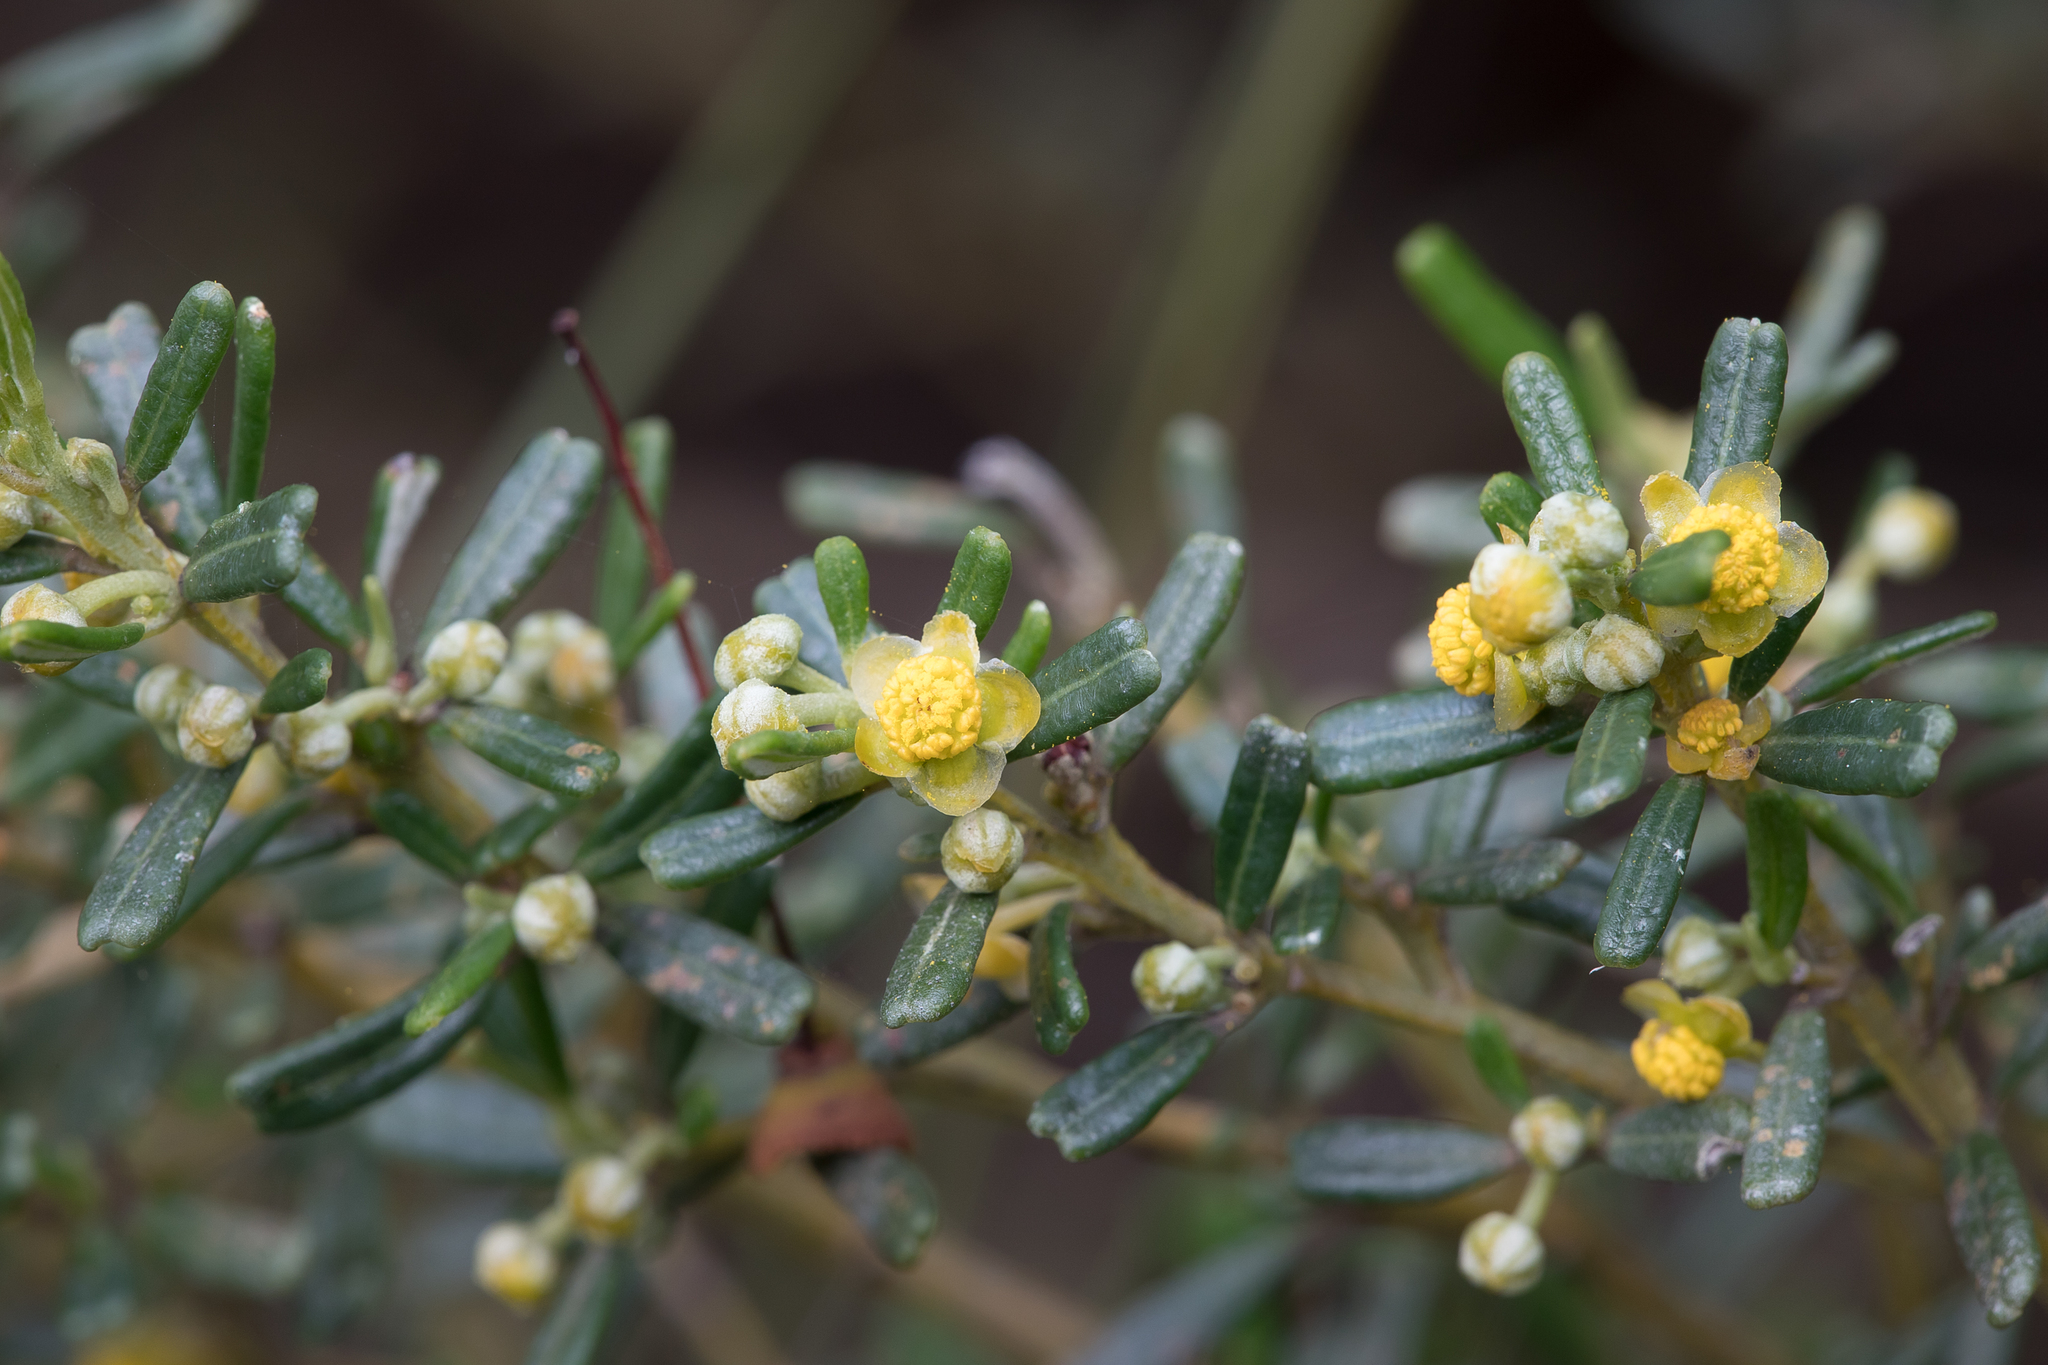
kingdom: Plantae
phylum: Tracheophyta
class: Magnoliopsida
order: Malpighiales
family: Euphorbiaceae
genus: Beyeria
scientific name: Beyeria lechenaultii
